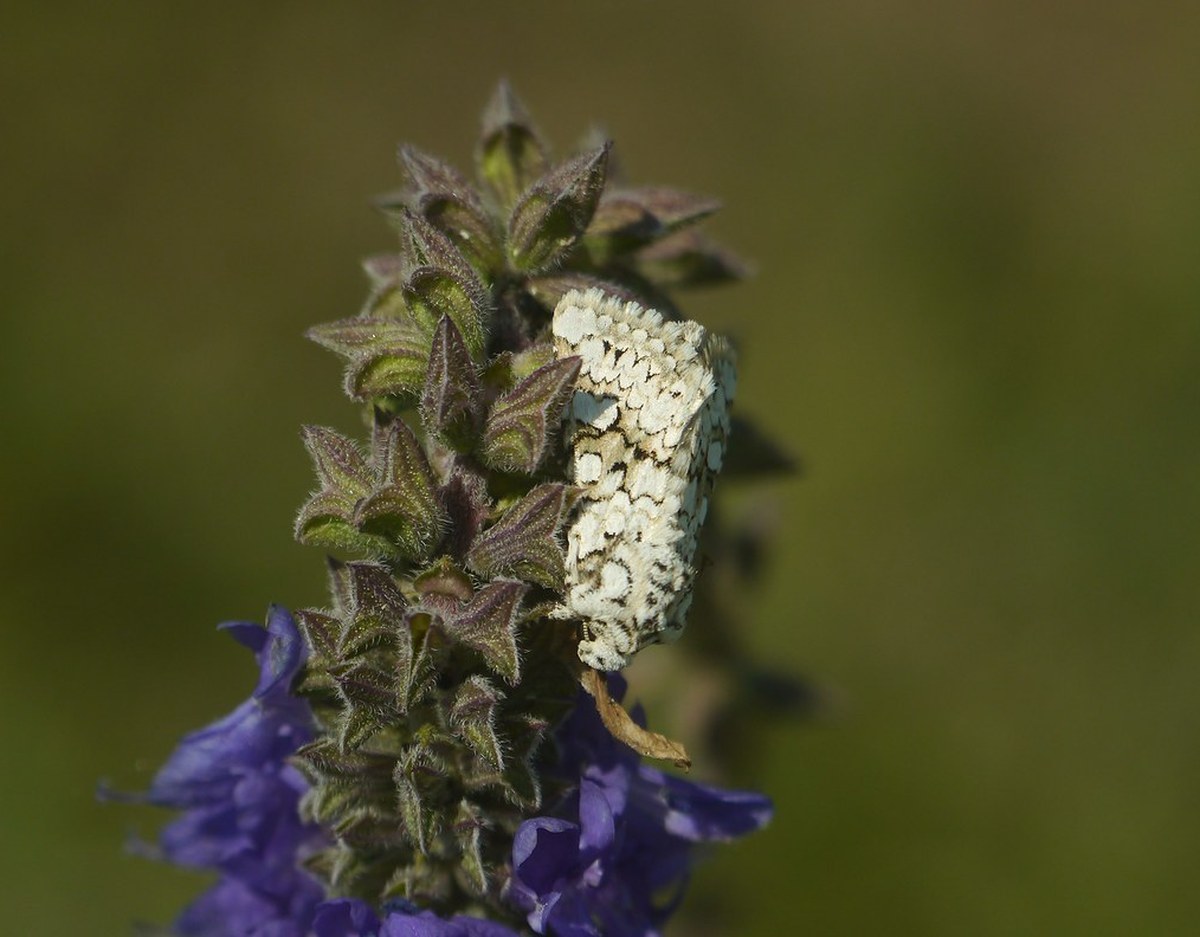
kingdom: Animalia
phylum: Arthropoda
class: Insecta
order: Lepidoptera
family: Noctuidae
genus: Hecatera
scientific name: Hecatera cappa
